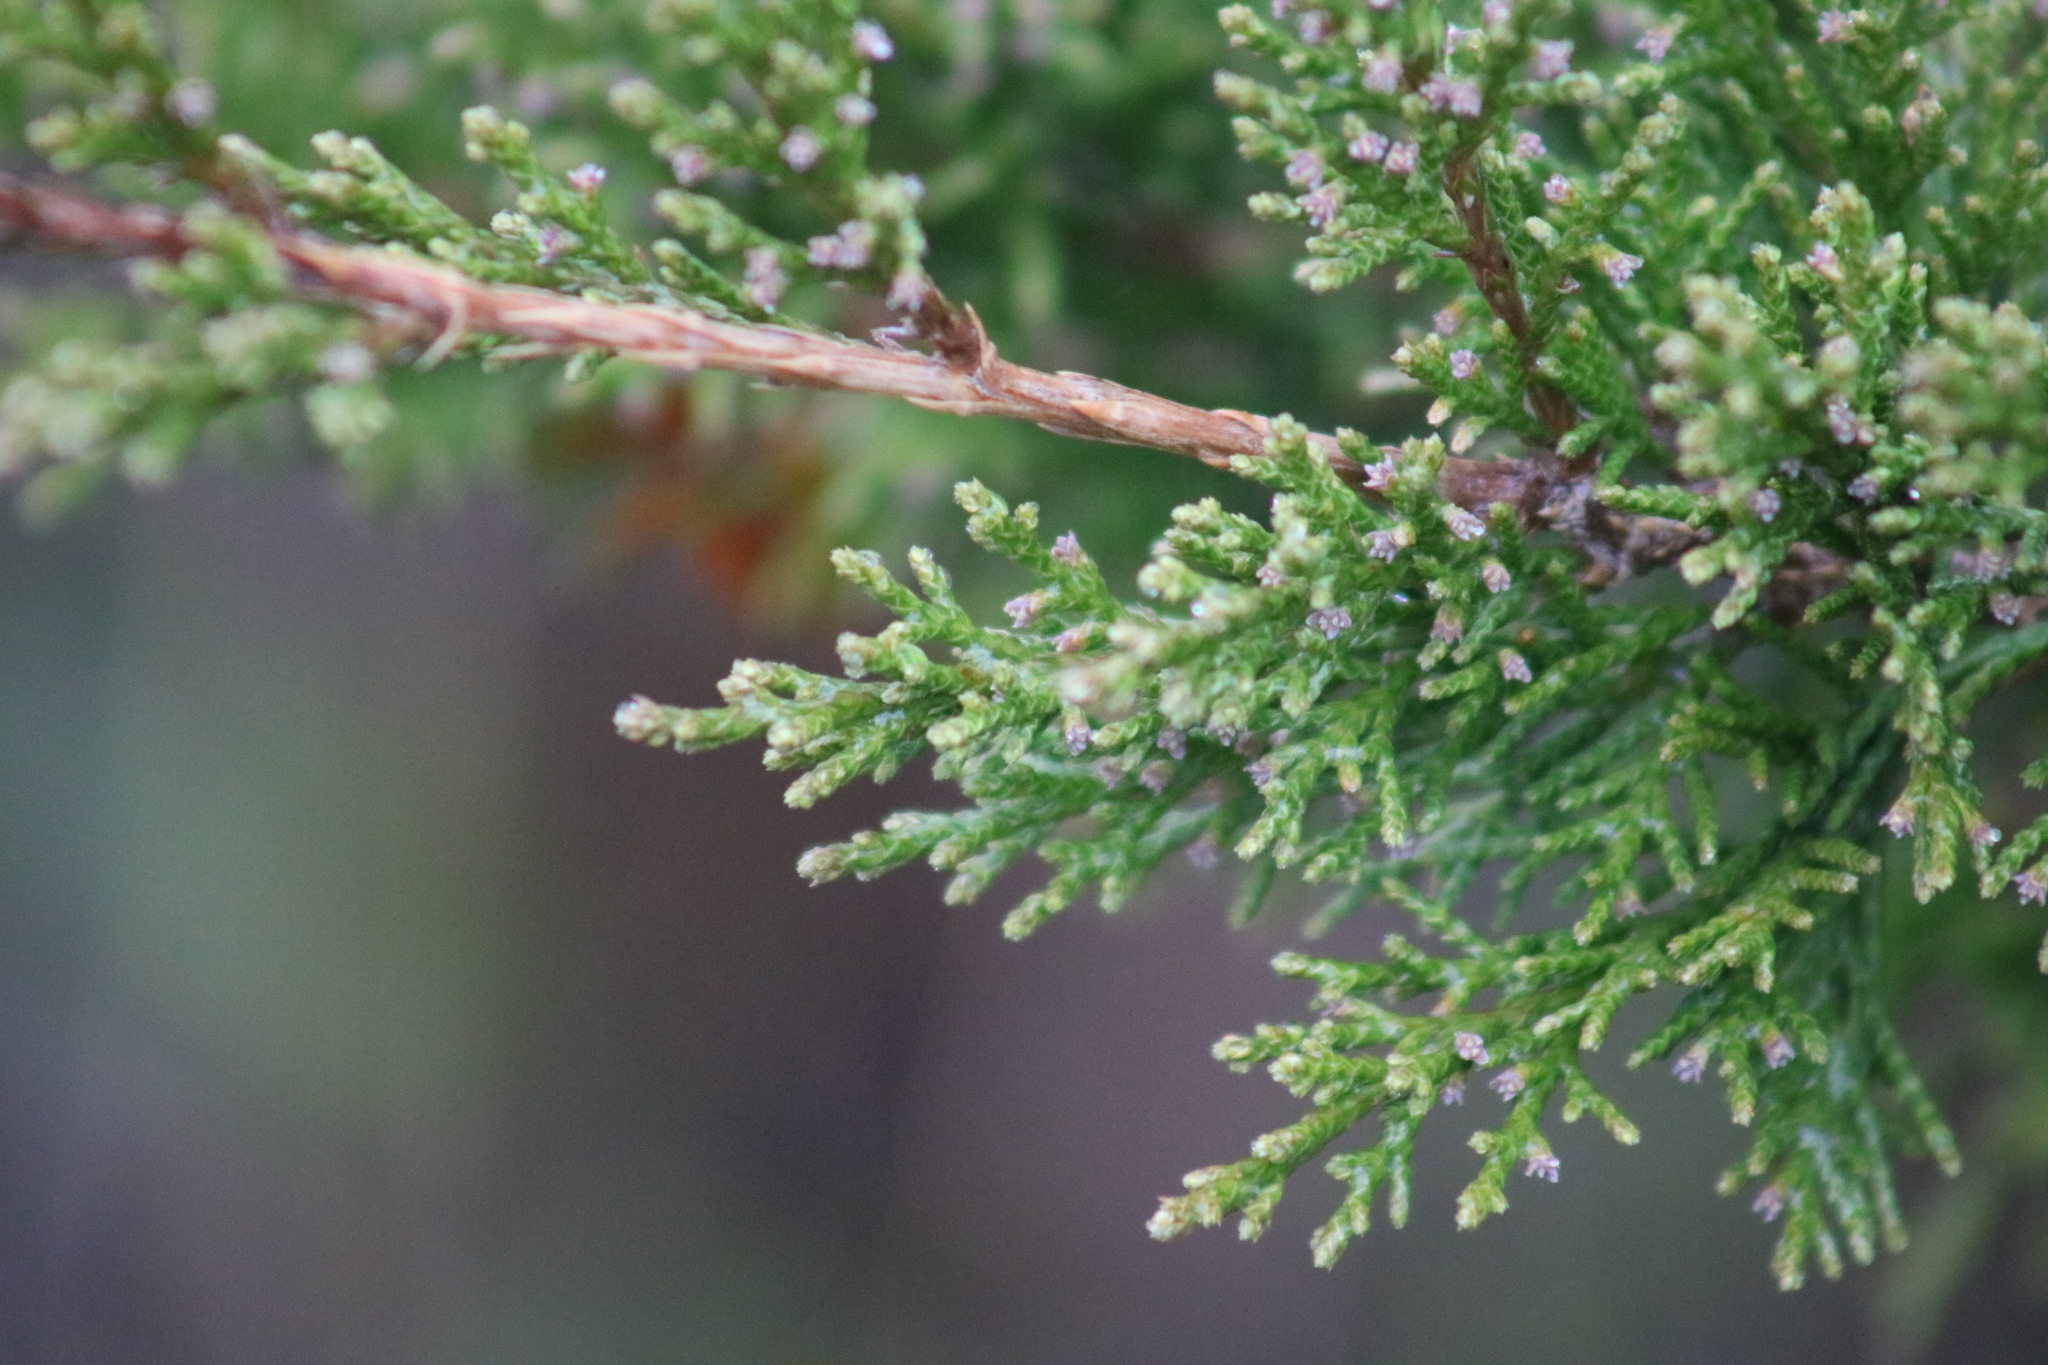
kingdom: Plantae
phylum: Tracheophyta
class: Pinopsida
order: Pinales
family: Cupressaceae
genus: Juniperus
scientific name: Juniperus virginiana
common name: Red juniper
